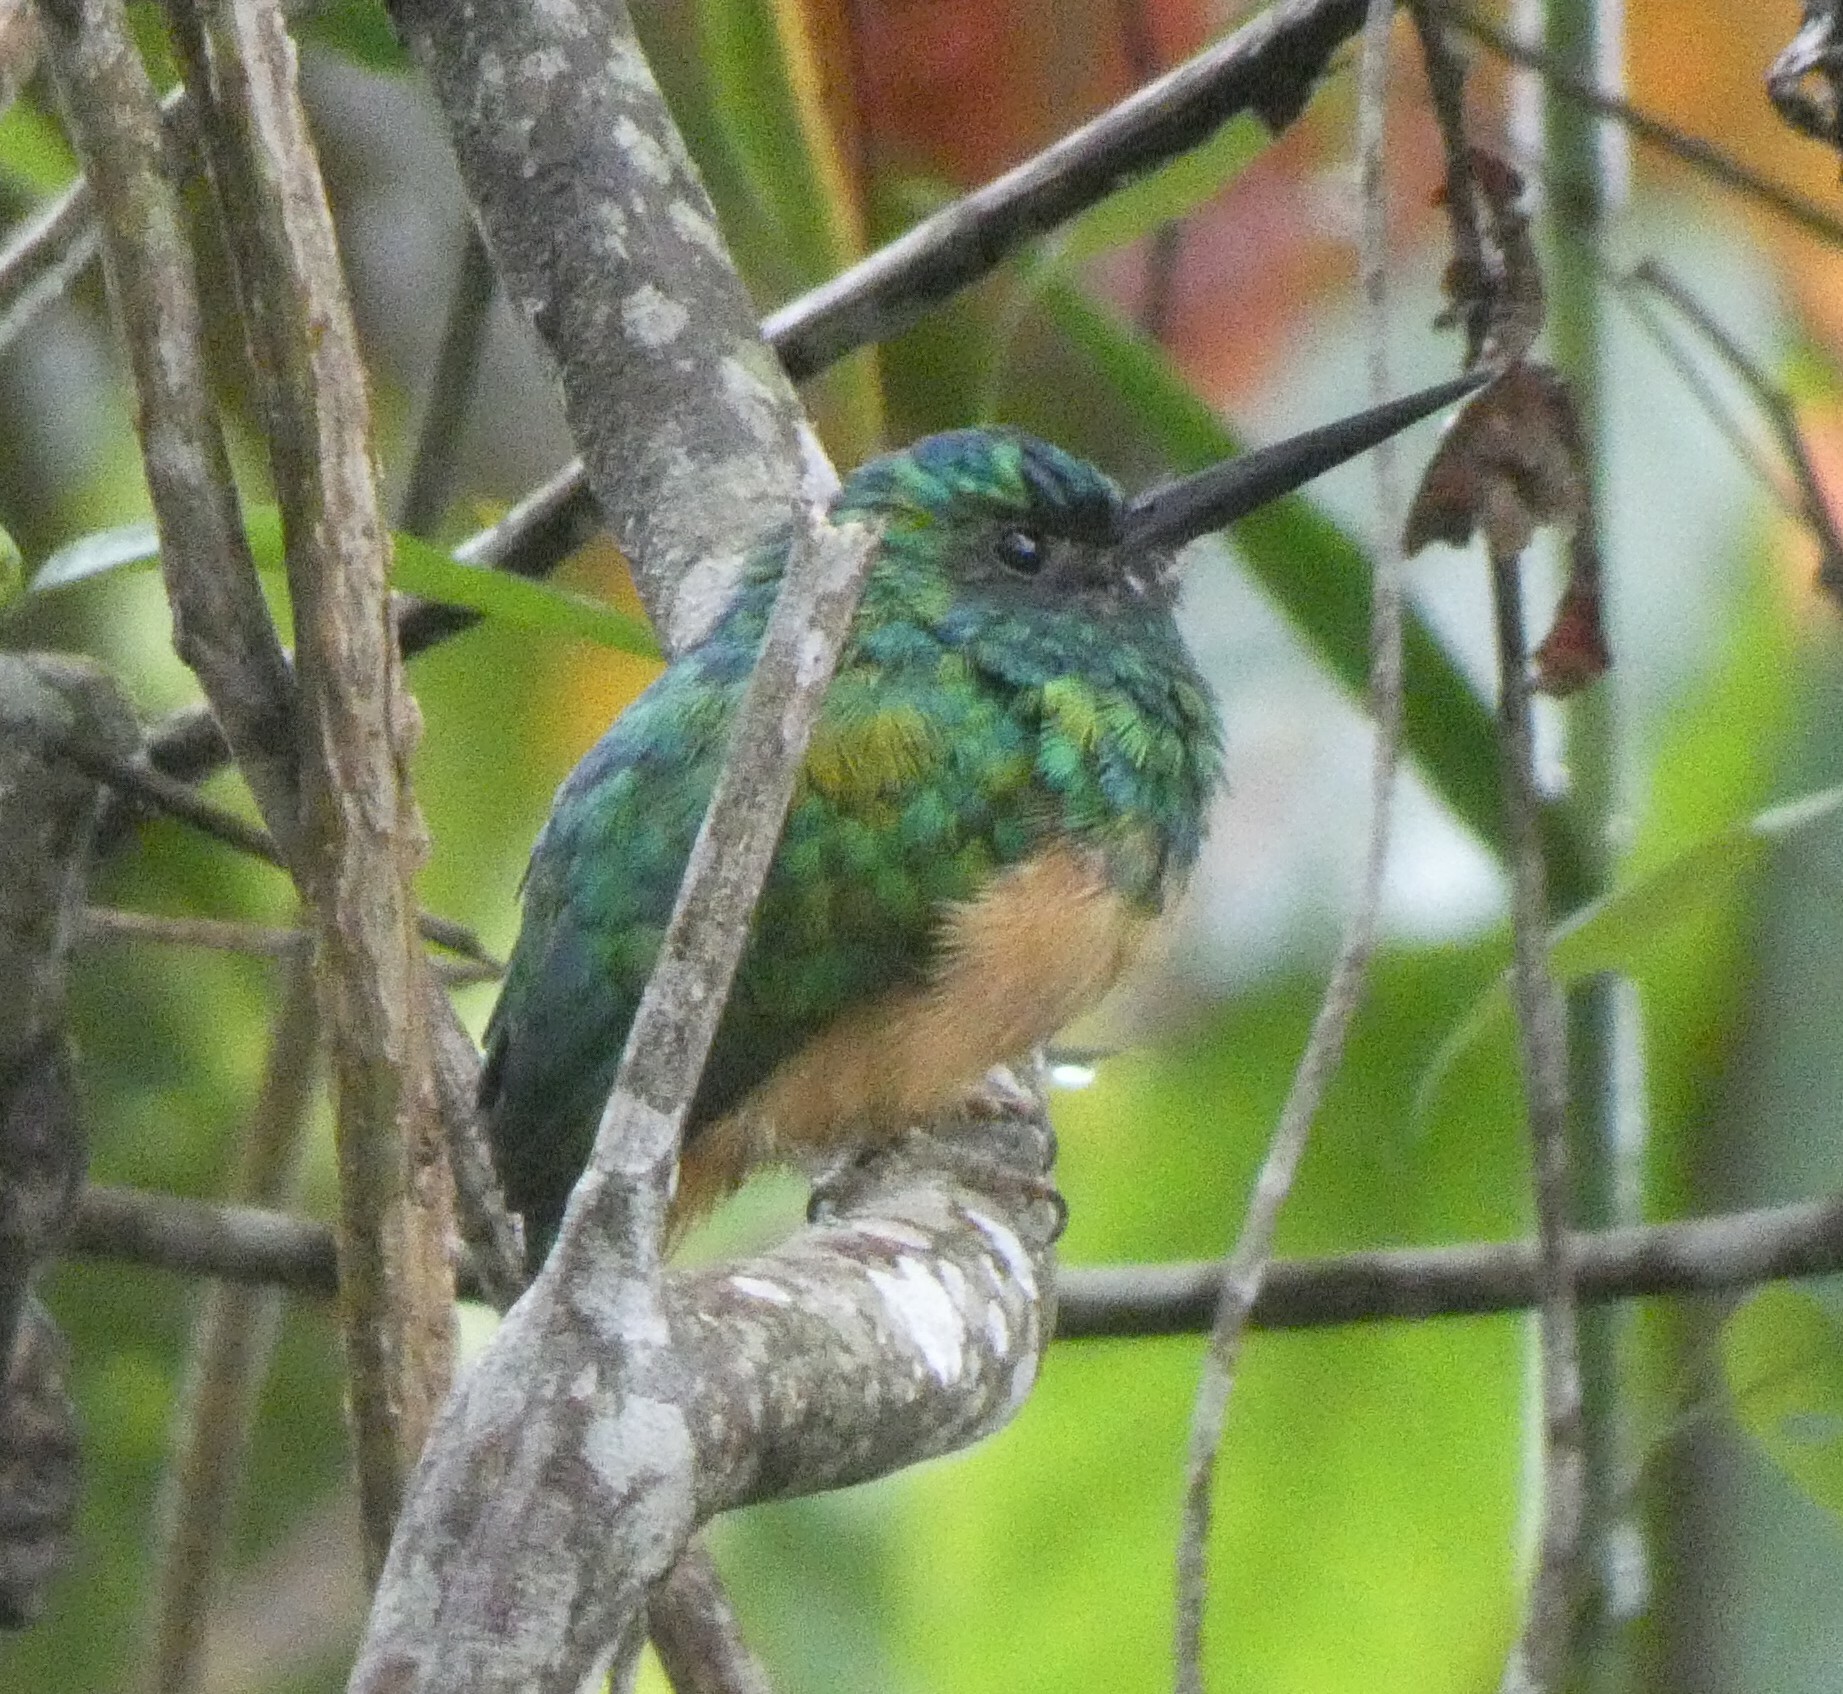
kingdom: Animalia
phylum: Chordata
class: Aves
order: Piciformes
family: Galbulidae
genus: Galbula
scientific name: Galbula cyanescens
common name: Bluish-fronted jacamar
